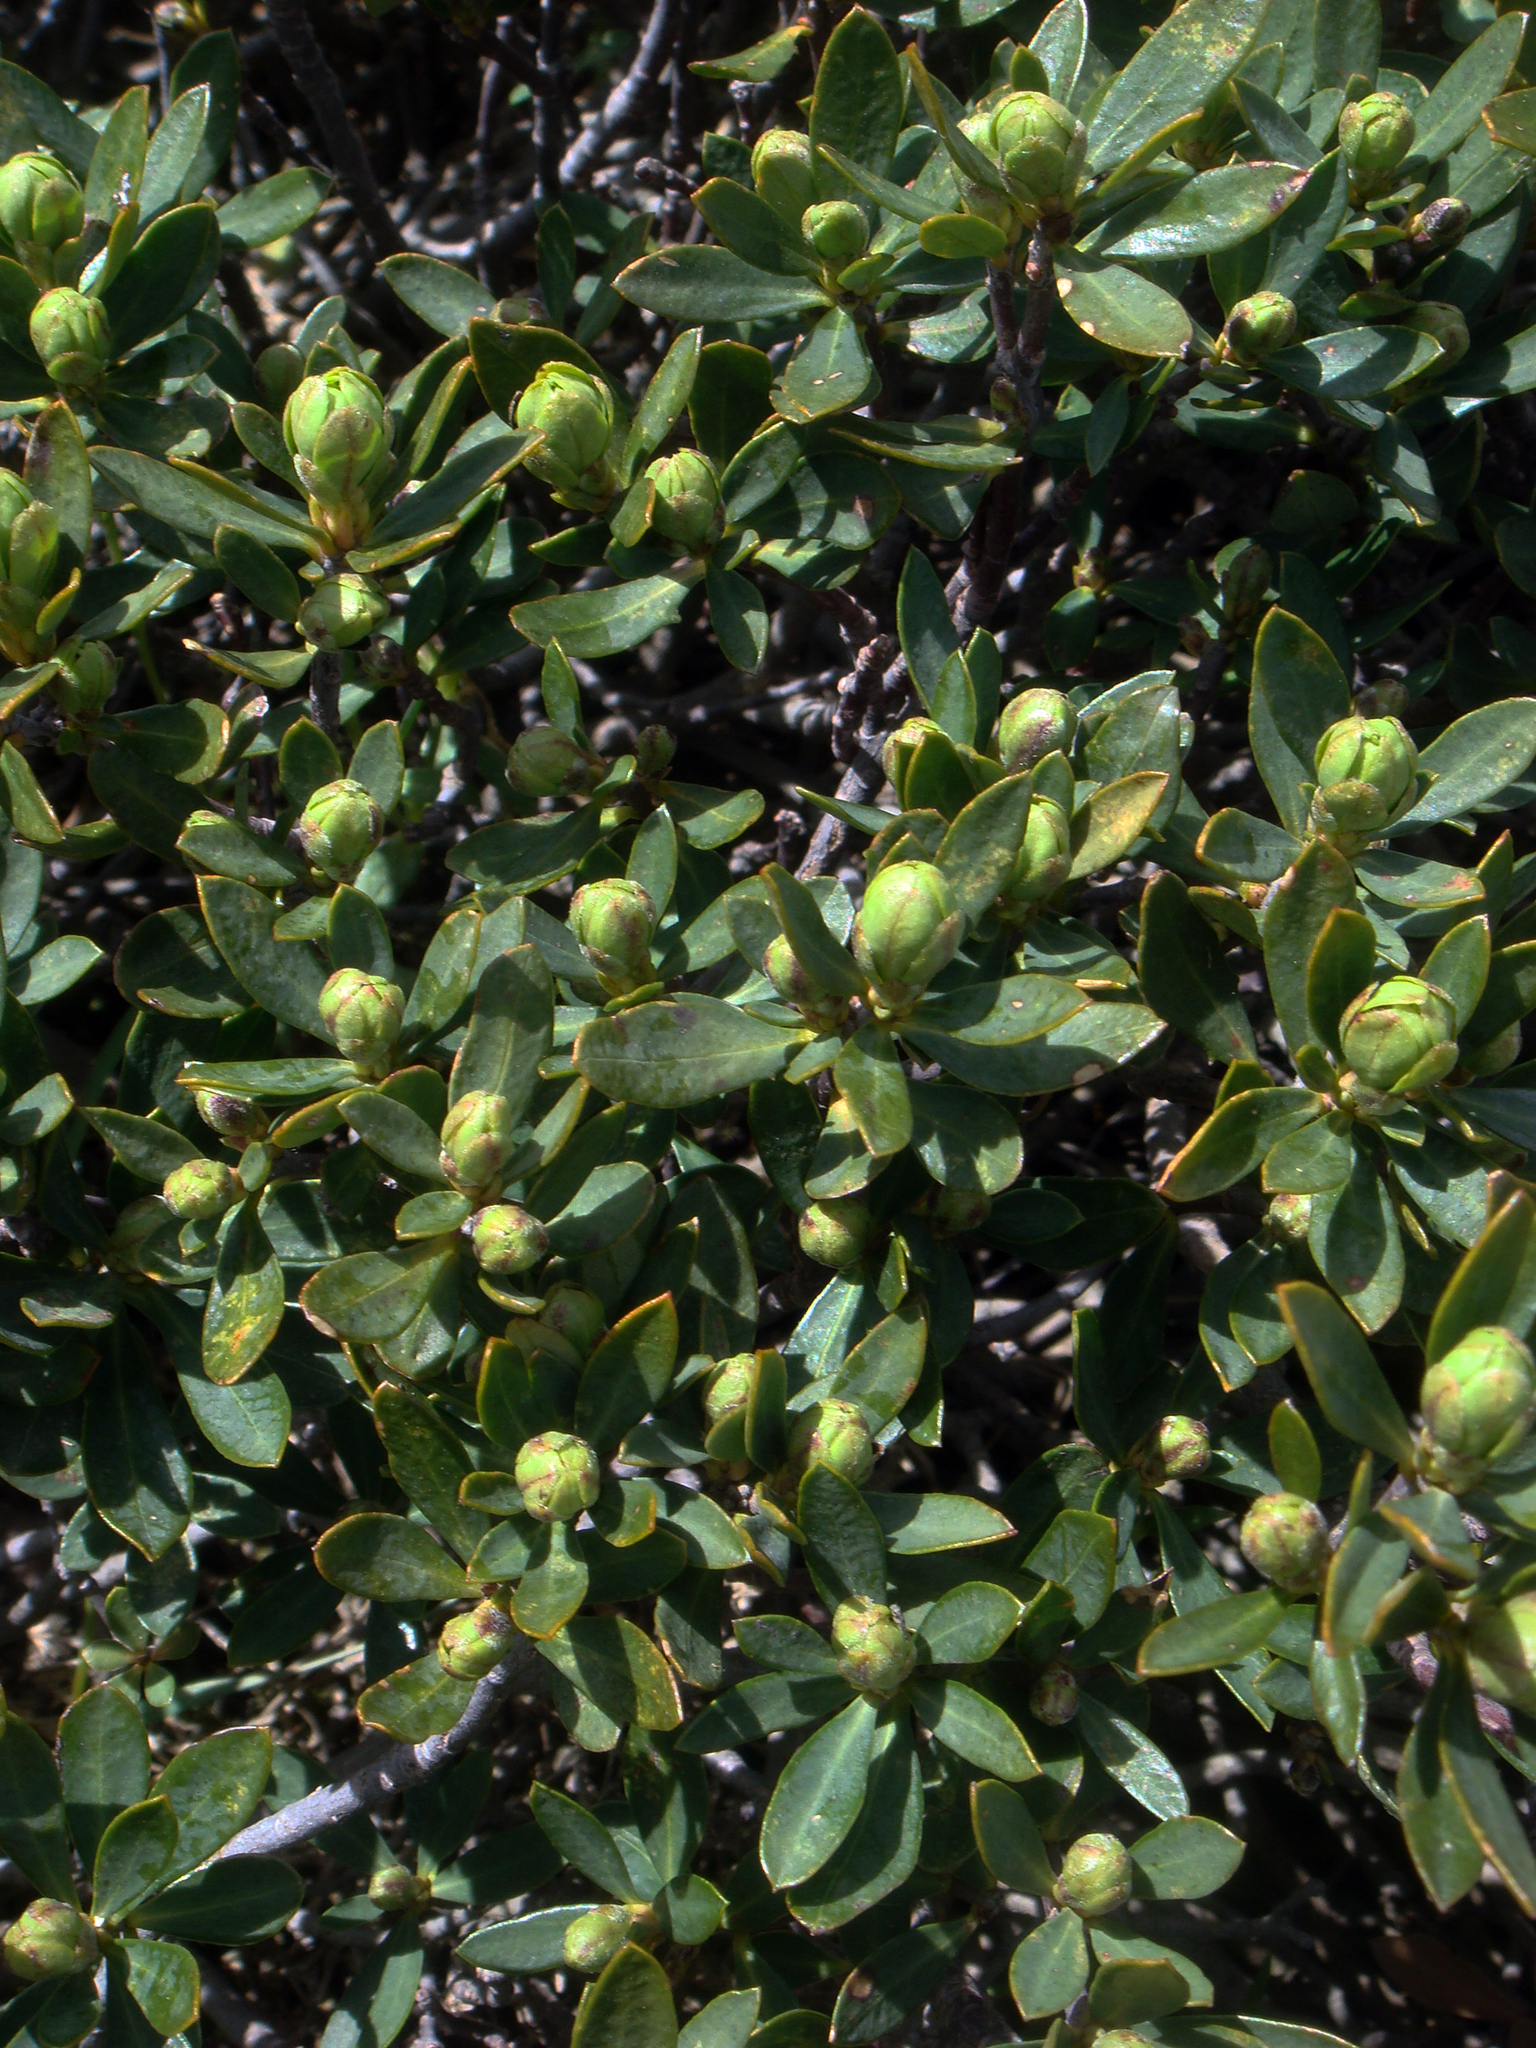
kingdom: Plantae
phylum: Tracheophyta
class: Magnoliopsida
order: Malvales
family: Thymelaeaceae
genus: Daphne
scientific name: Daphne oleoides
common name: Spurge-olive
